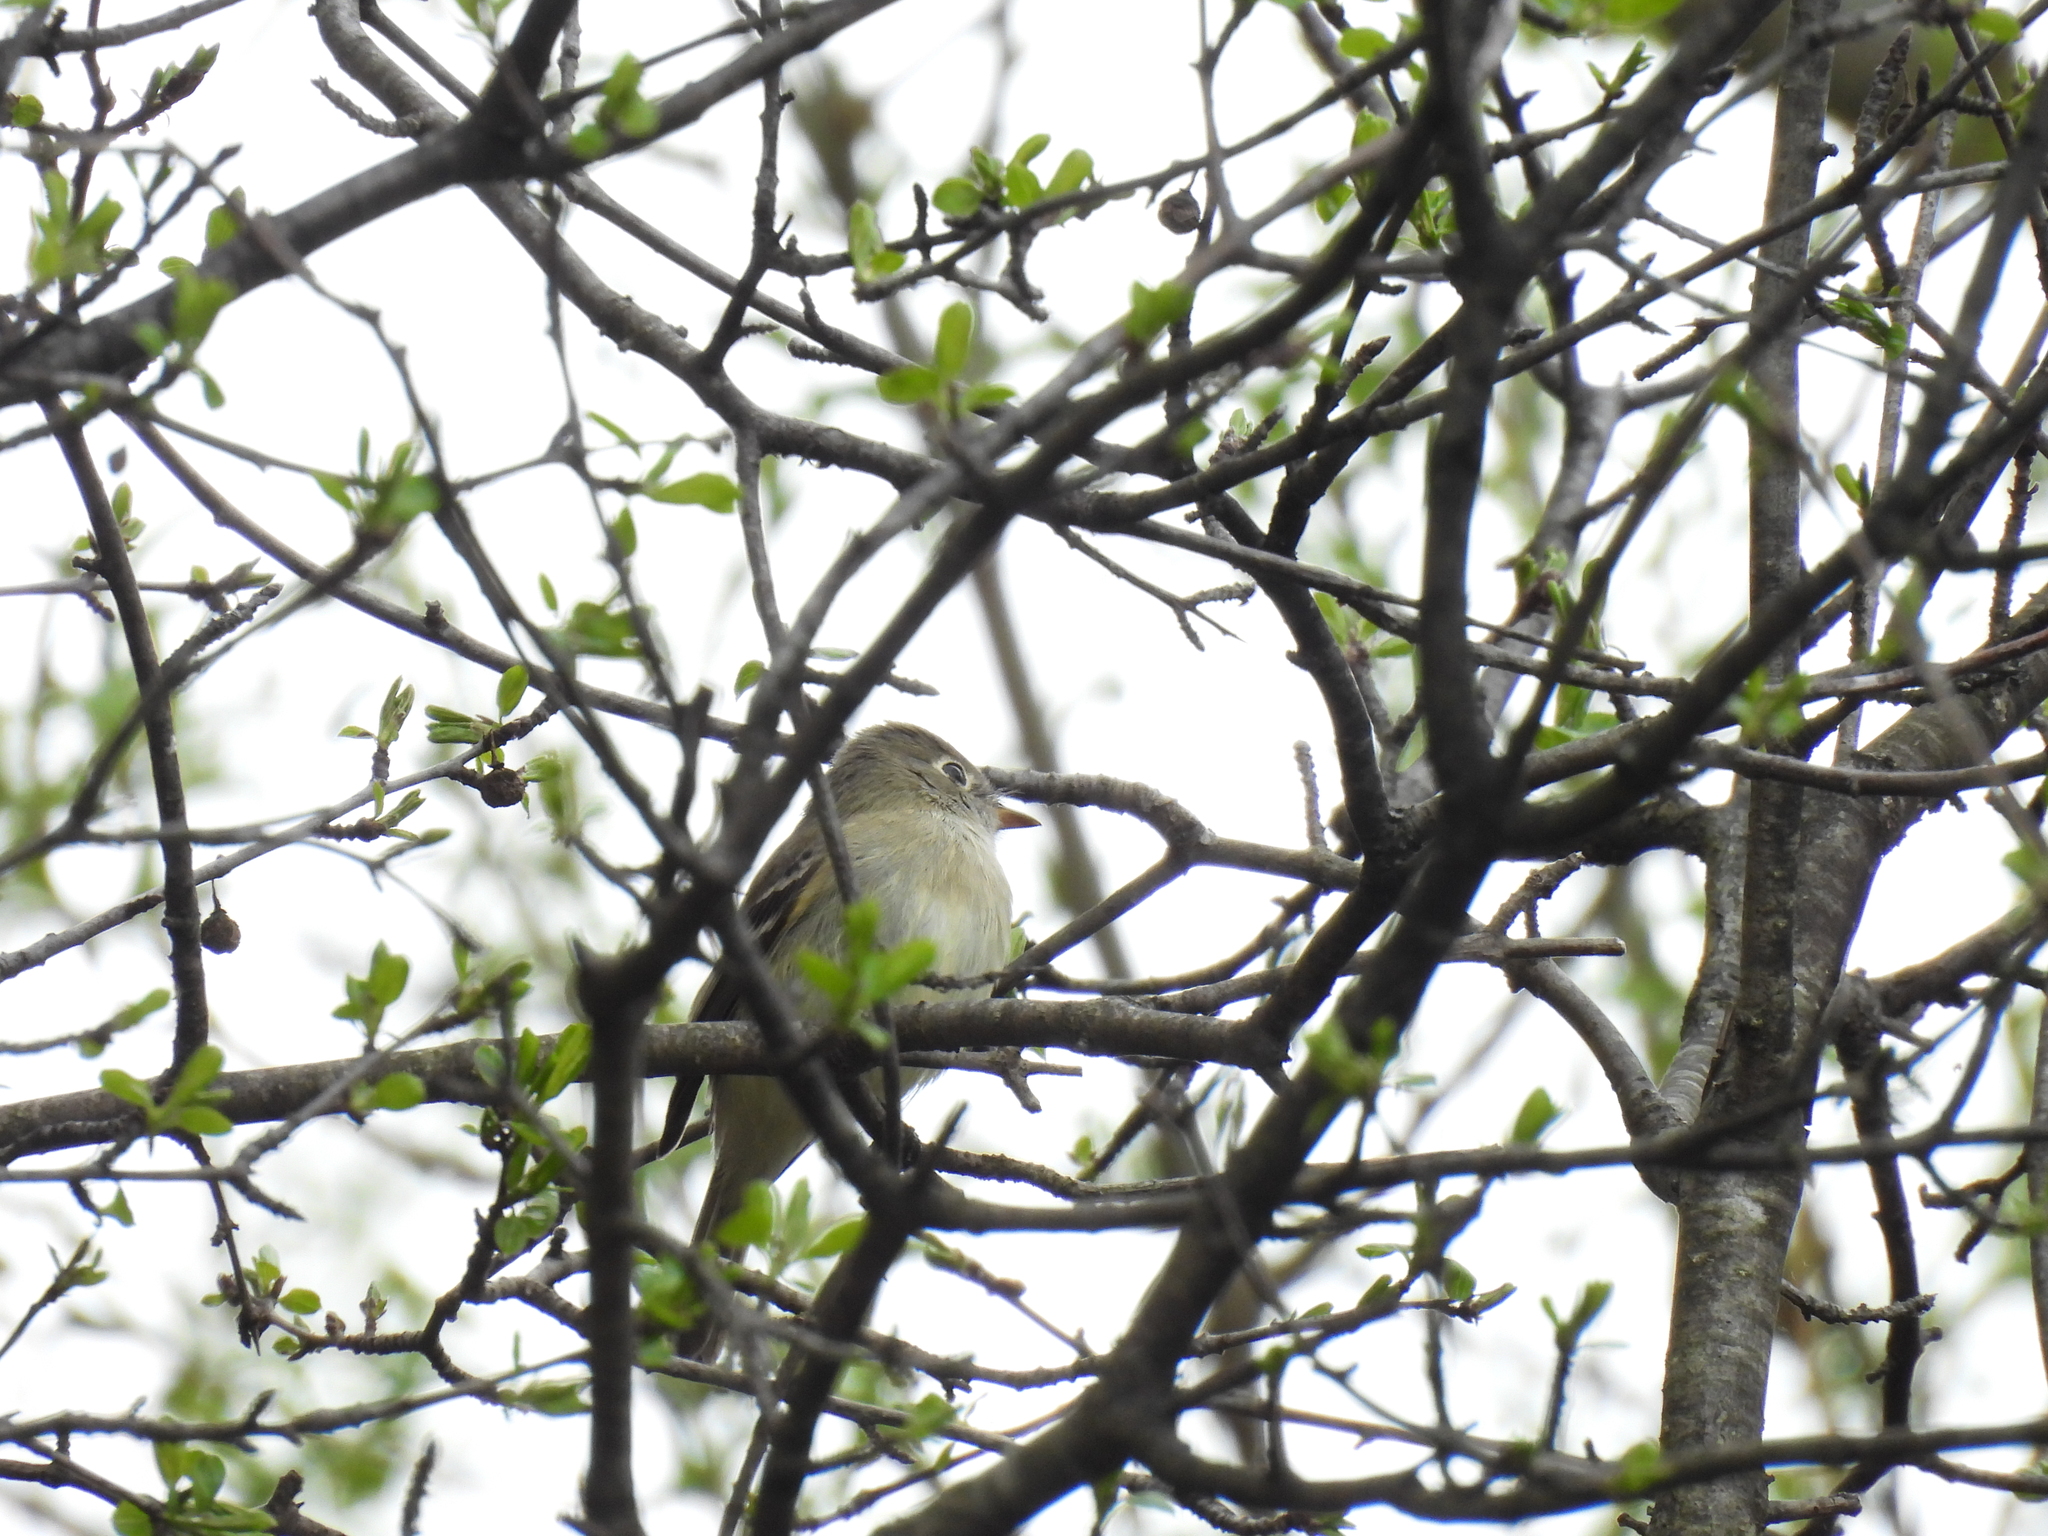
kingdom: Animalia
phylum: Chordata
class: Aves
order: Passeriformes
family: Tyrannidae
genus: Empidonax
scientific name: Empidonax minimus
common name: Least flycatcher
